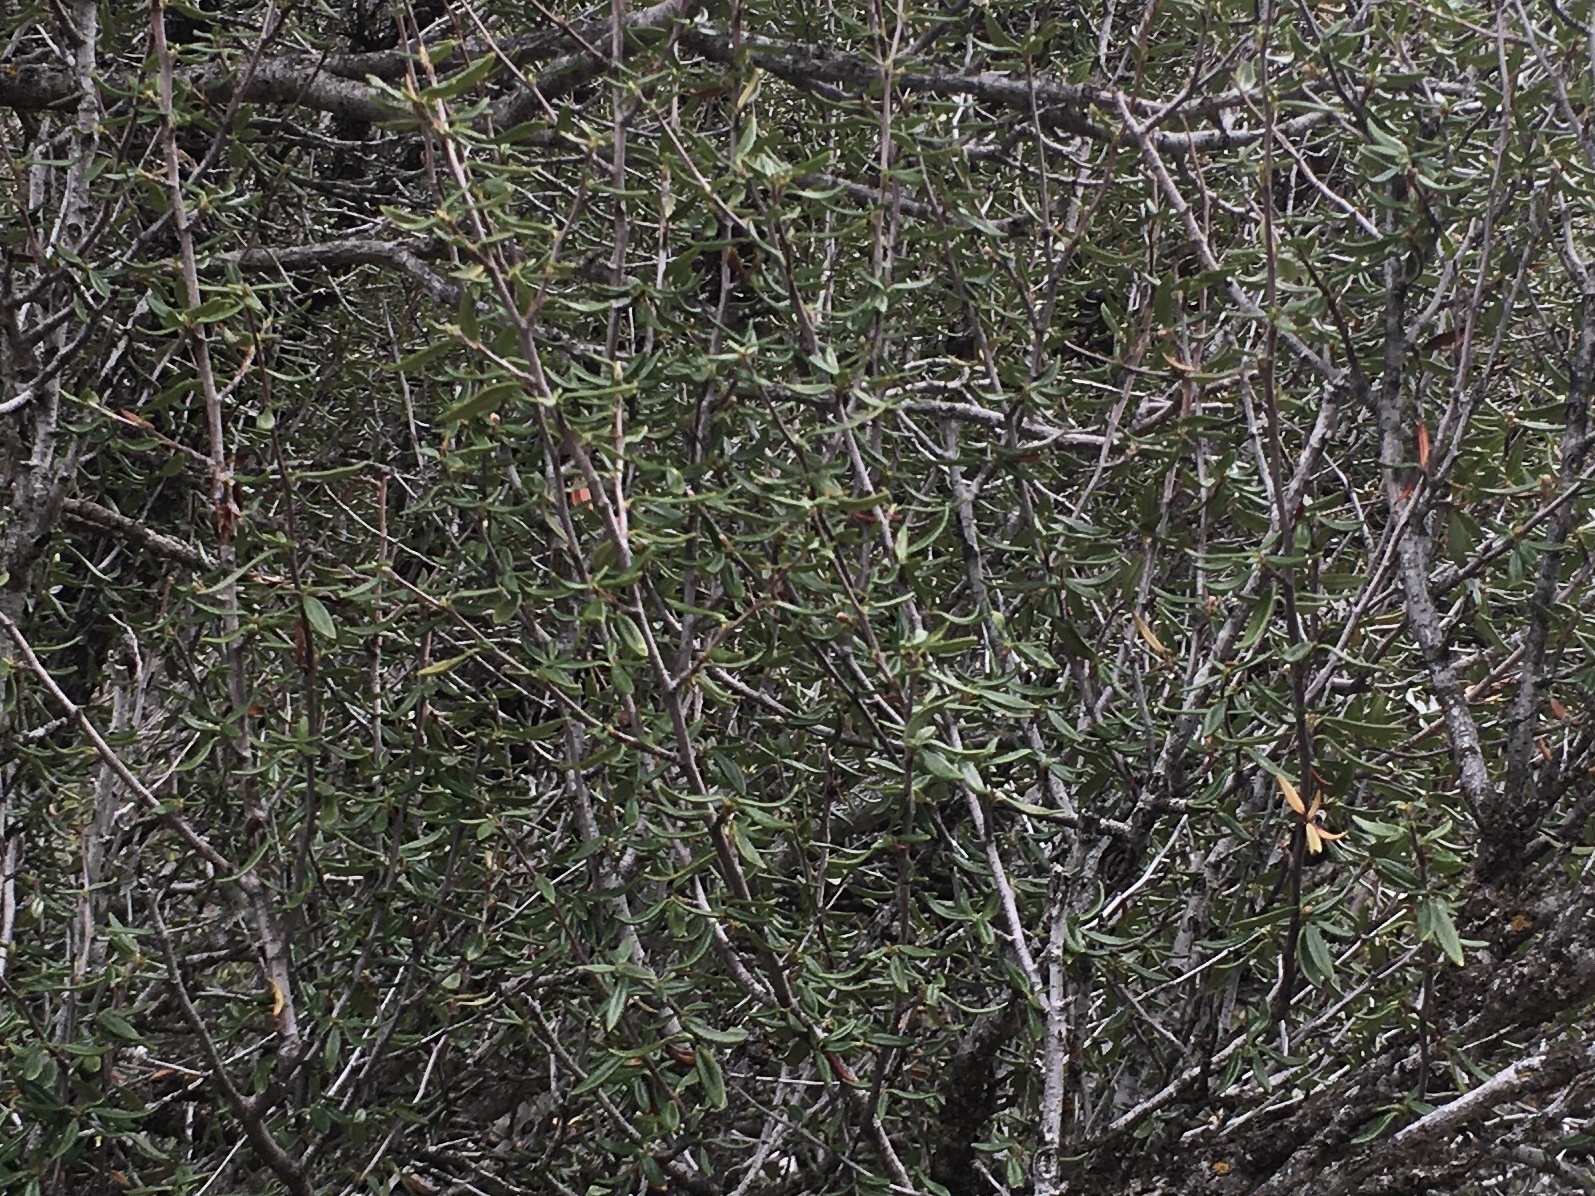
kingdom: Plantae
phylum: Tracheophyta
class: Magnoliopsida
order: Asterales
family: Asteraceae
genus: Artemisia
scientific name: Artemisia tridentata
